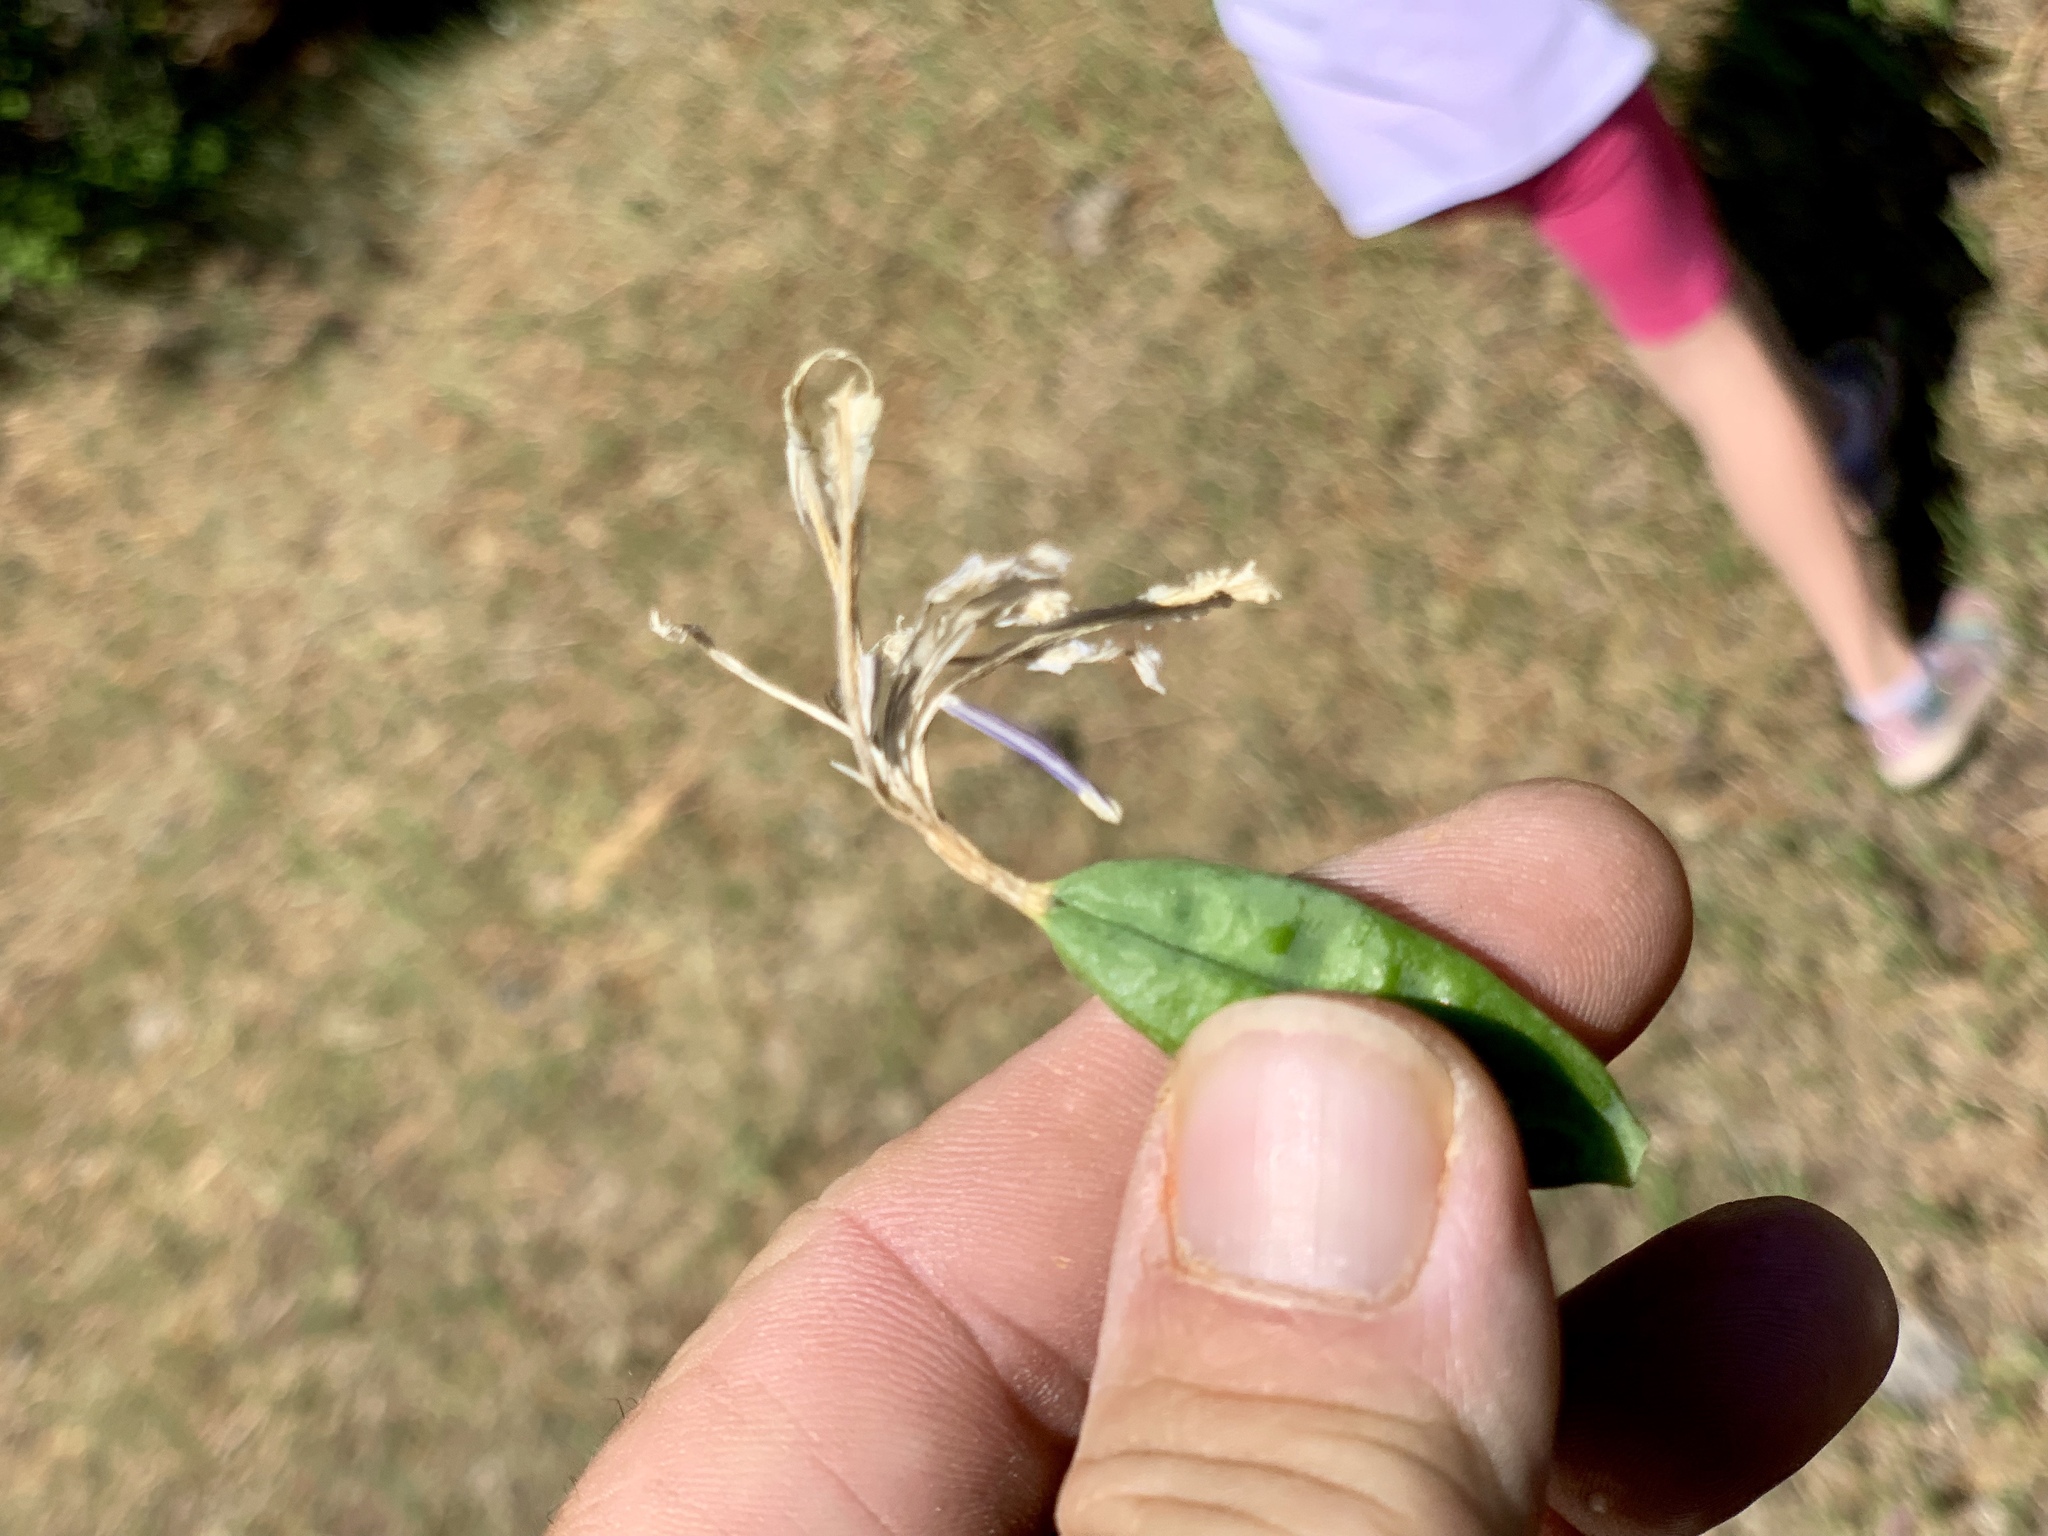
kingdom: Plantae
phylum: Tracheophyta
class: Liliopsida
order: Asparagales
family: Iridaceae
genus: Iris
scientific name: Iris missouriensis
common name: Rocky mountain iris
